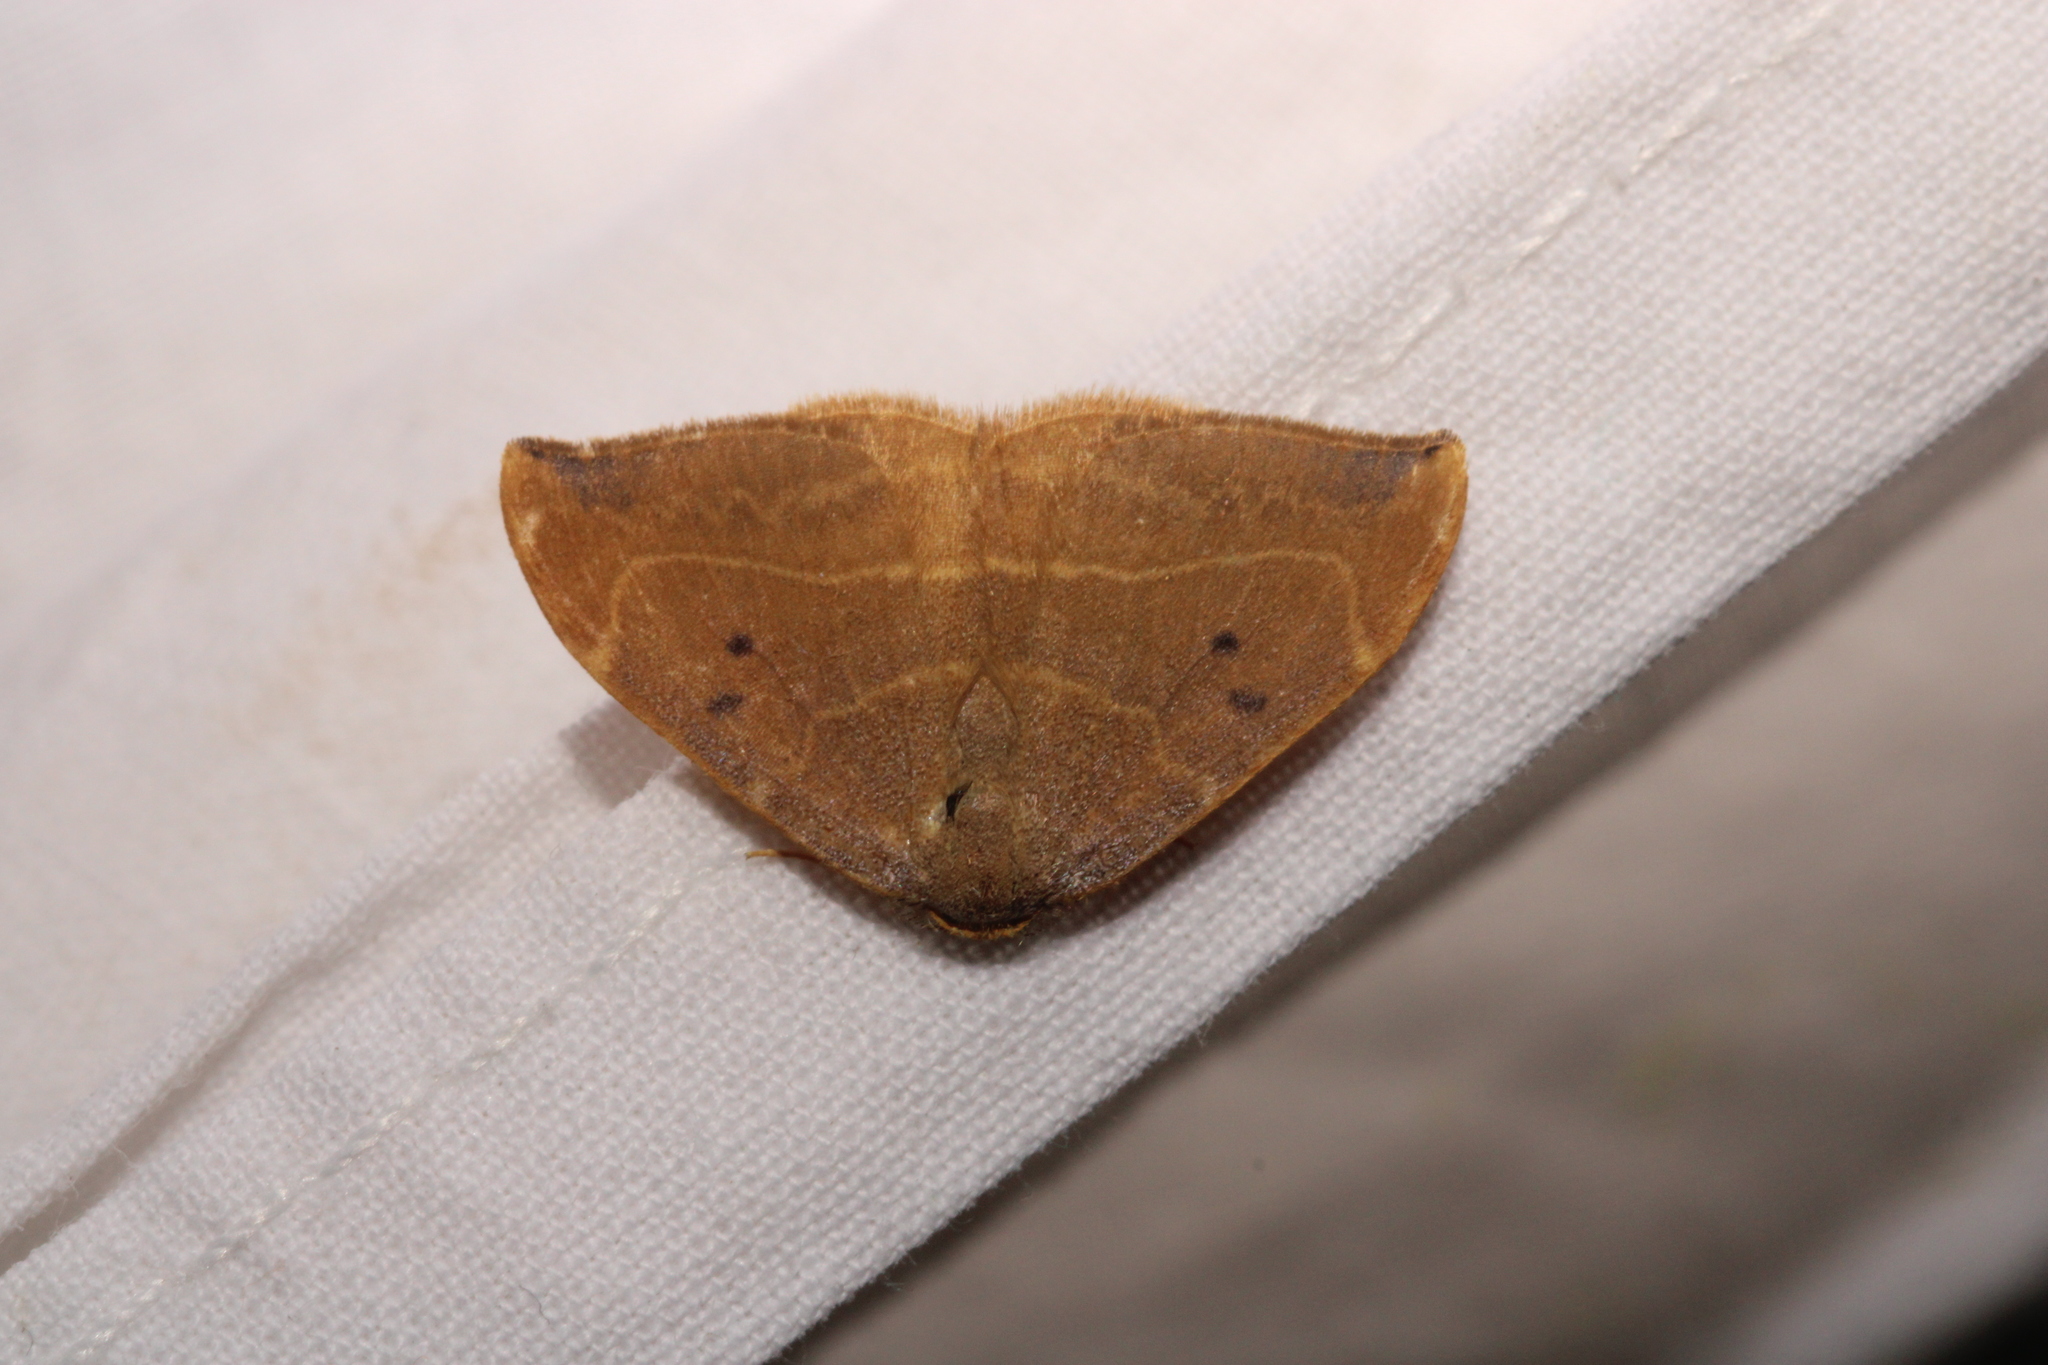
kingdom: Animalia
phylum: Arthropoda
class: Insecta
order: Lepidoptera
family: Drepanidae
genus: Watsonalla
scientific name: Watsonalla binaria
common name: Oak hook-tip
